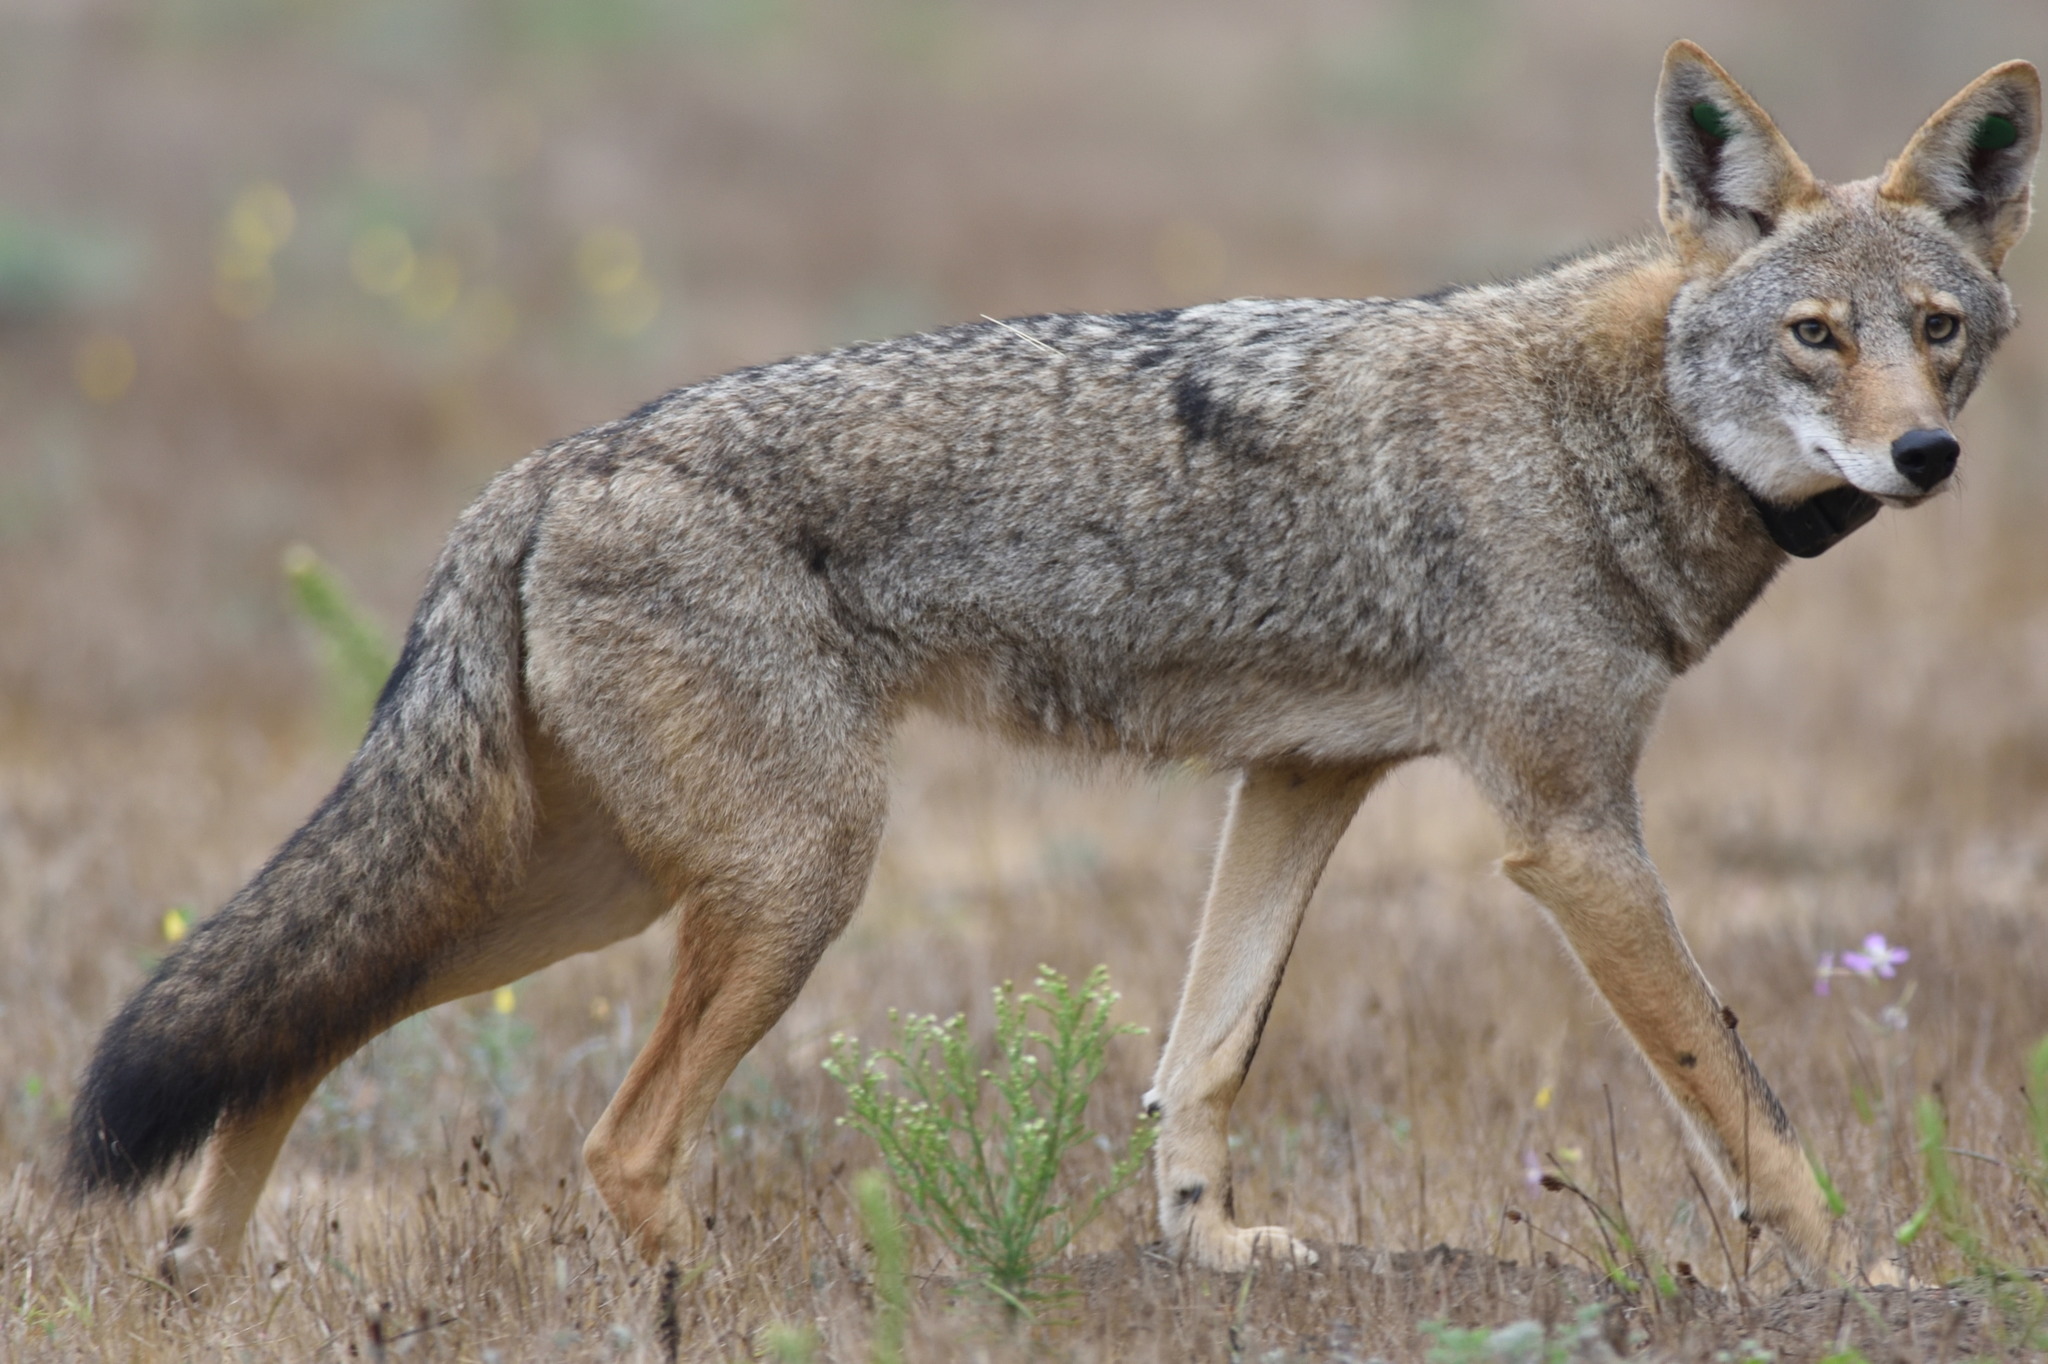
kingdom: Animalia
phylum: Chordata
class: Mammalia
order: Carnivora
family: Canidae
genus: Canis
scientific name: Canis latrans
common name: Coyote
